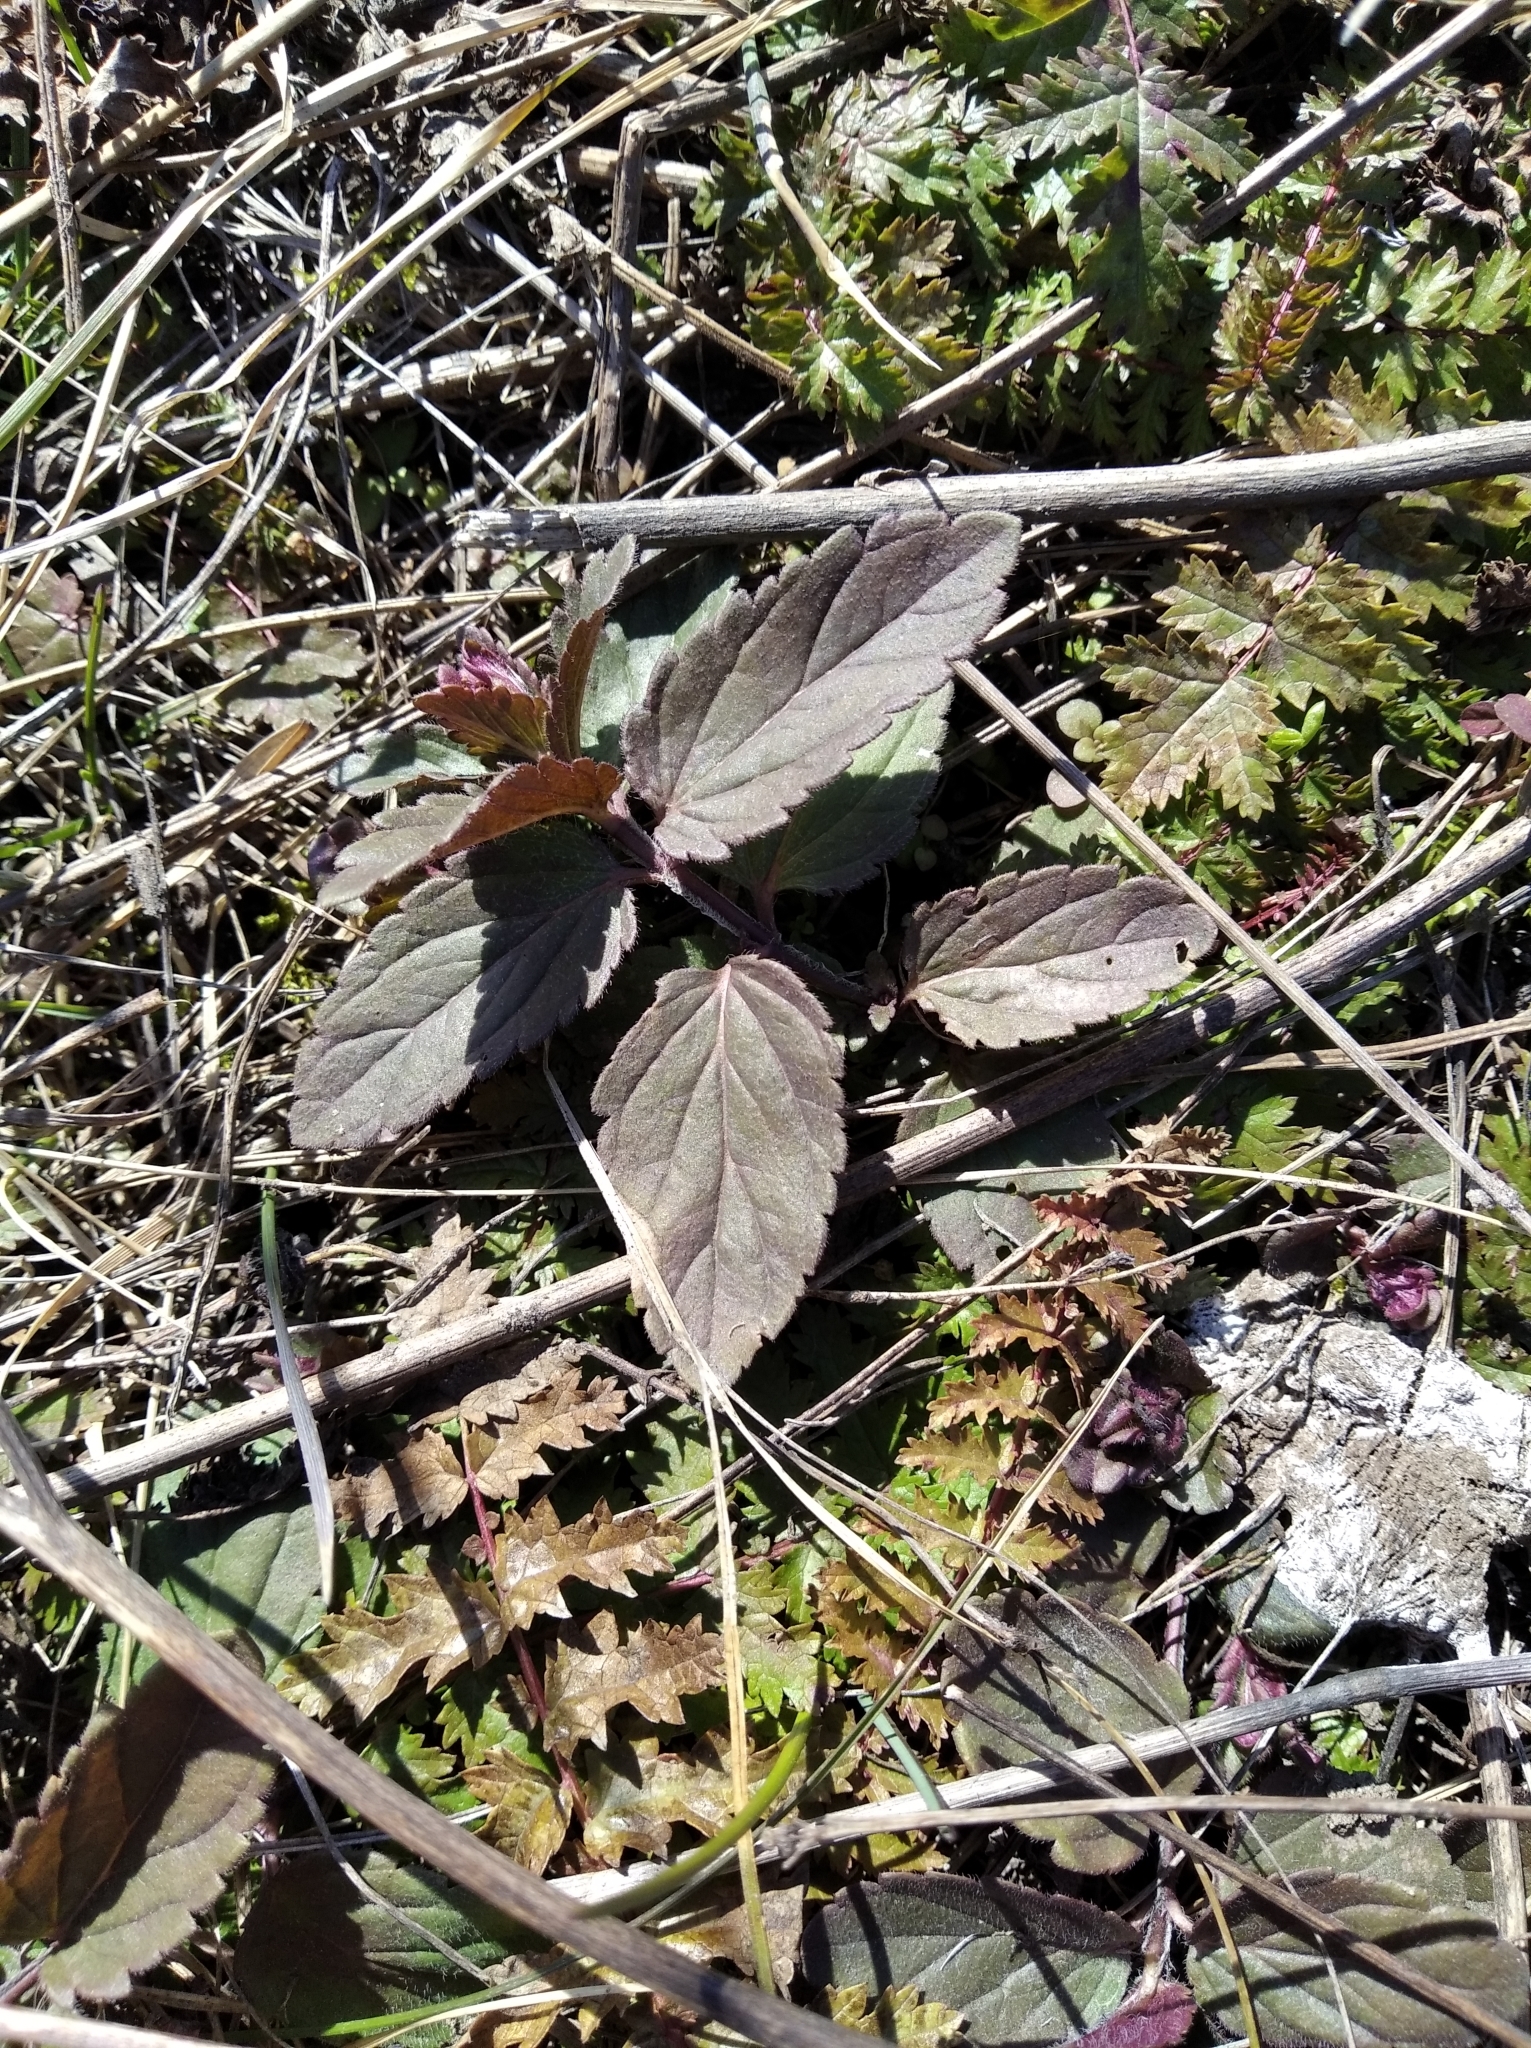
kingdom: Plantae
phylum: Tracheophyta
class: Magnoliopsida
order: Lamiales
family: Lamiaceae
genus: Ajuga
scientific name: Ajuga genevensis
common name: Blue bugle
